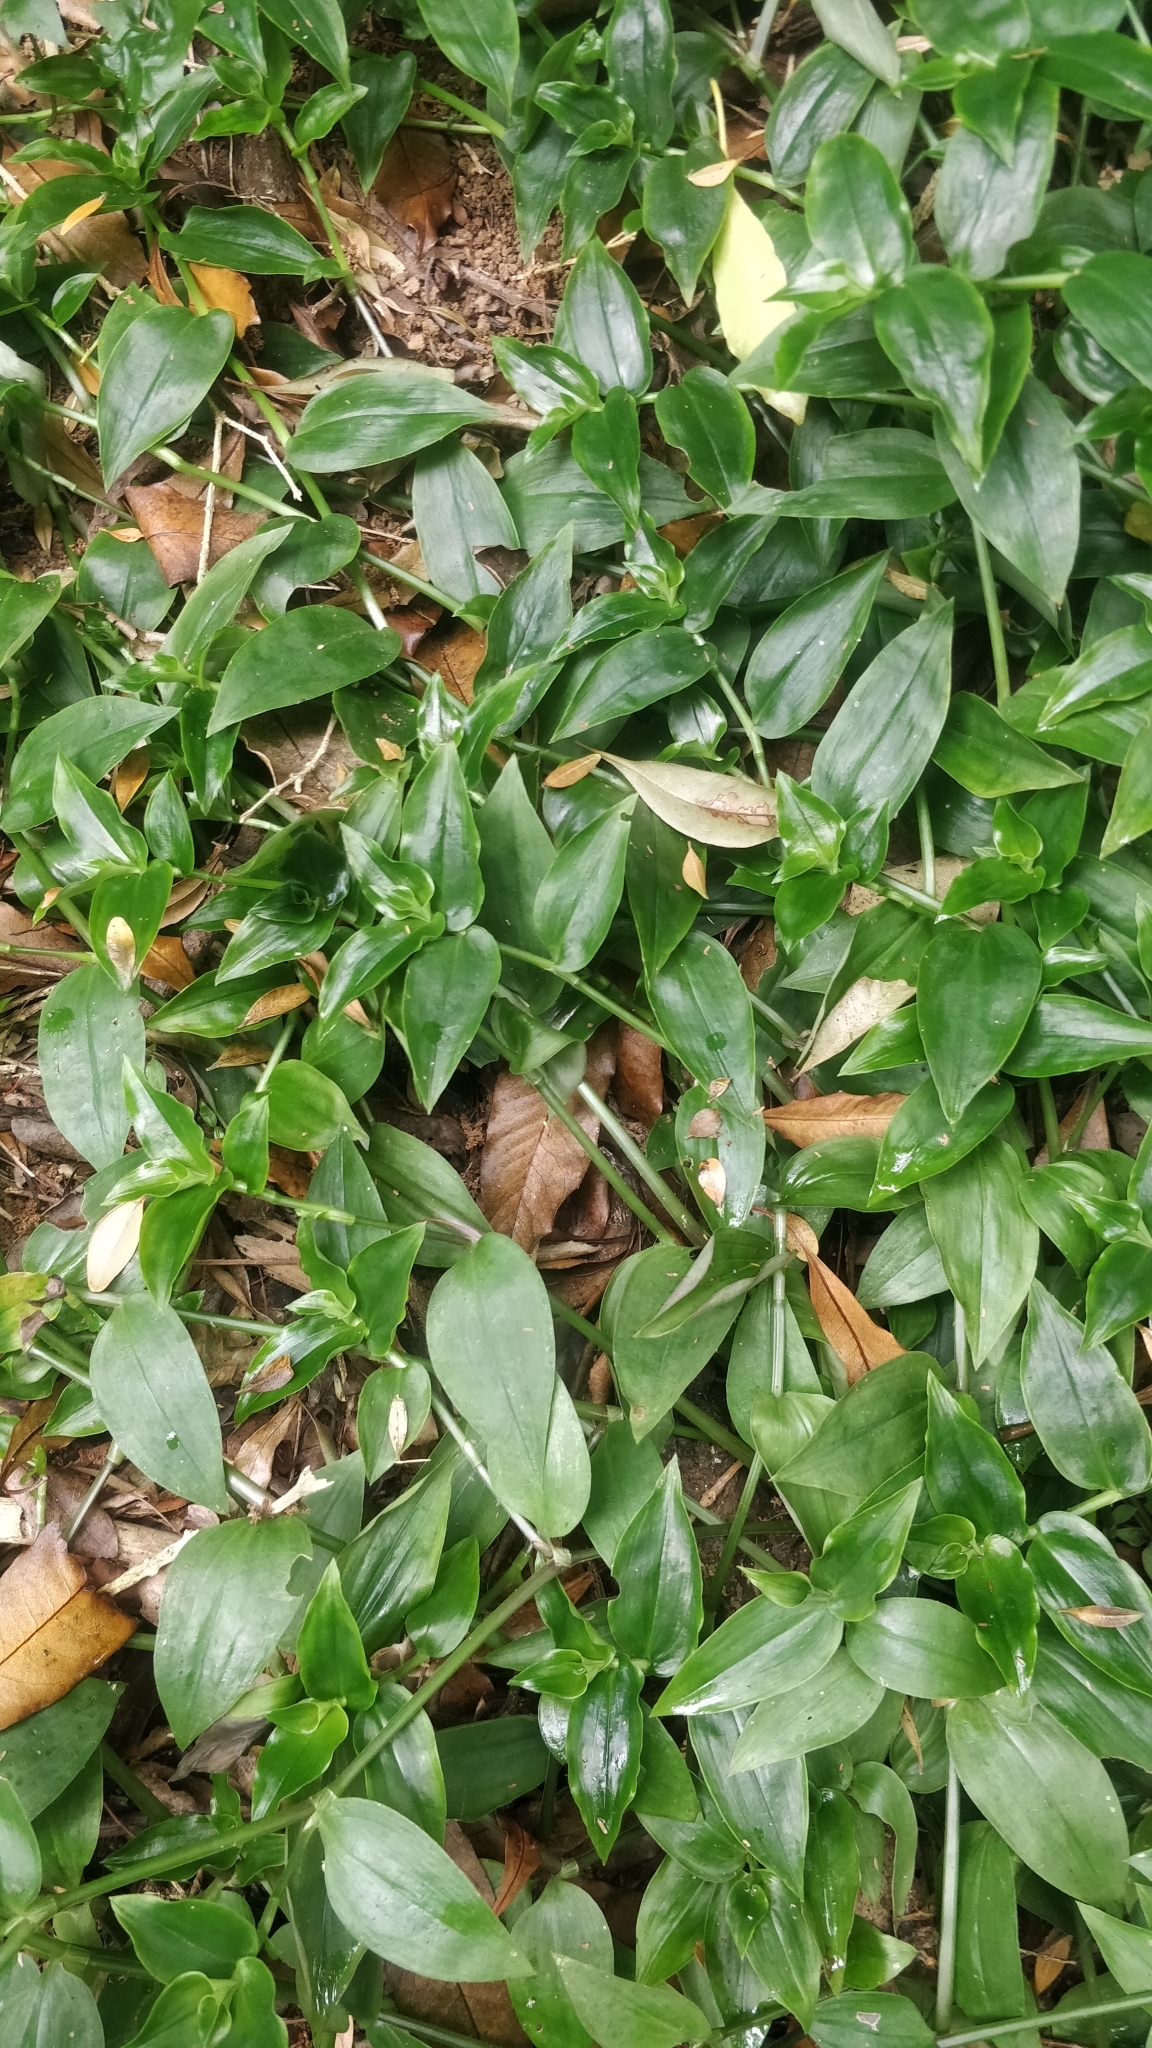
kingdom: Plantae
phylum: Tracheophyta
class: Liliopsida
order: Commelinales
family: Commelinaceae
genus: Tradescantia
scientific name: Tradescantia fluminensis
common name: Wandering-jew
